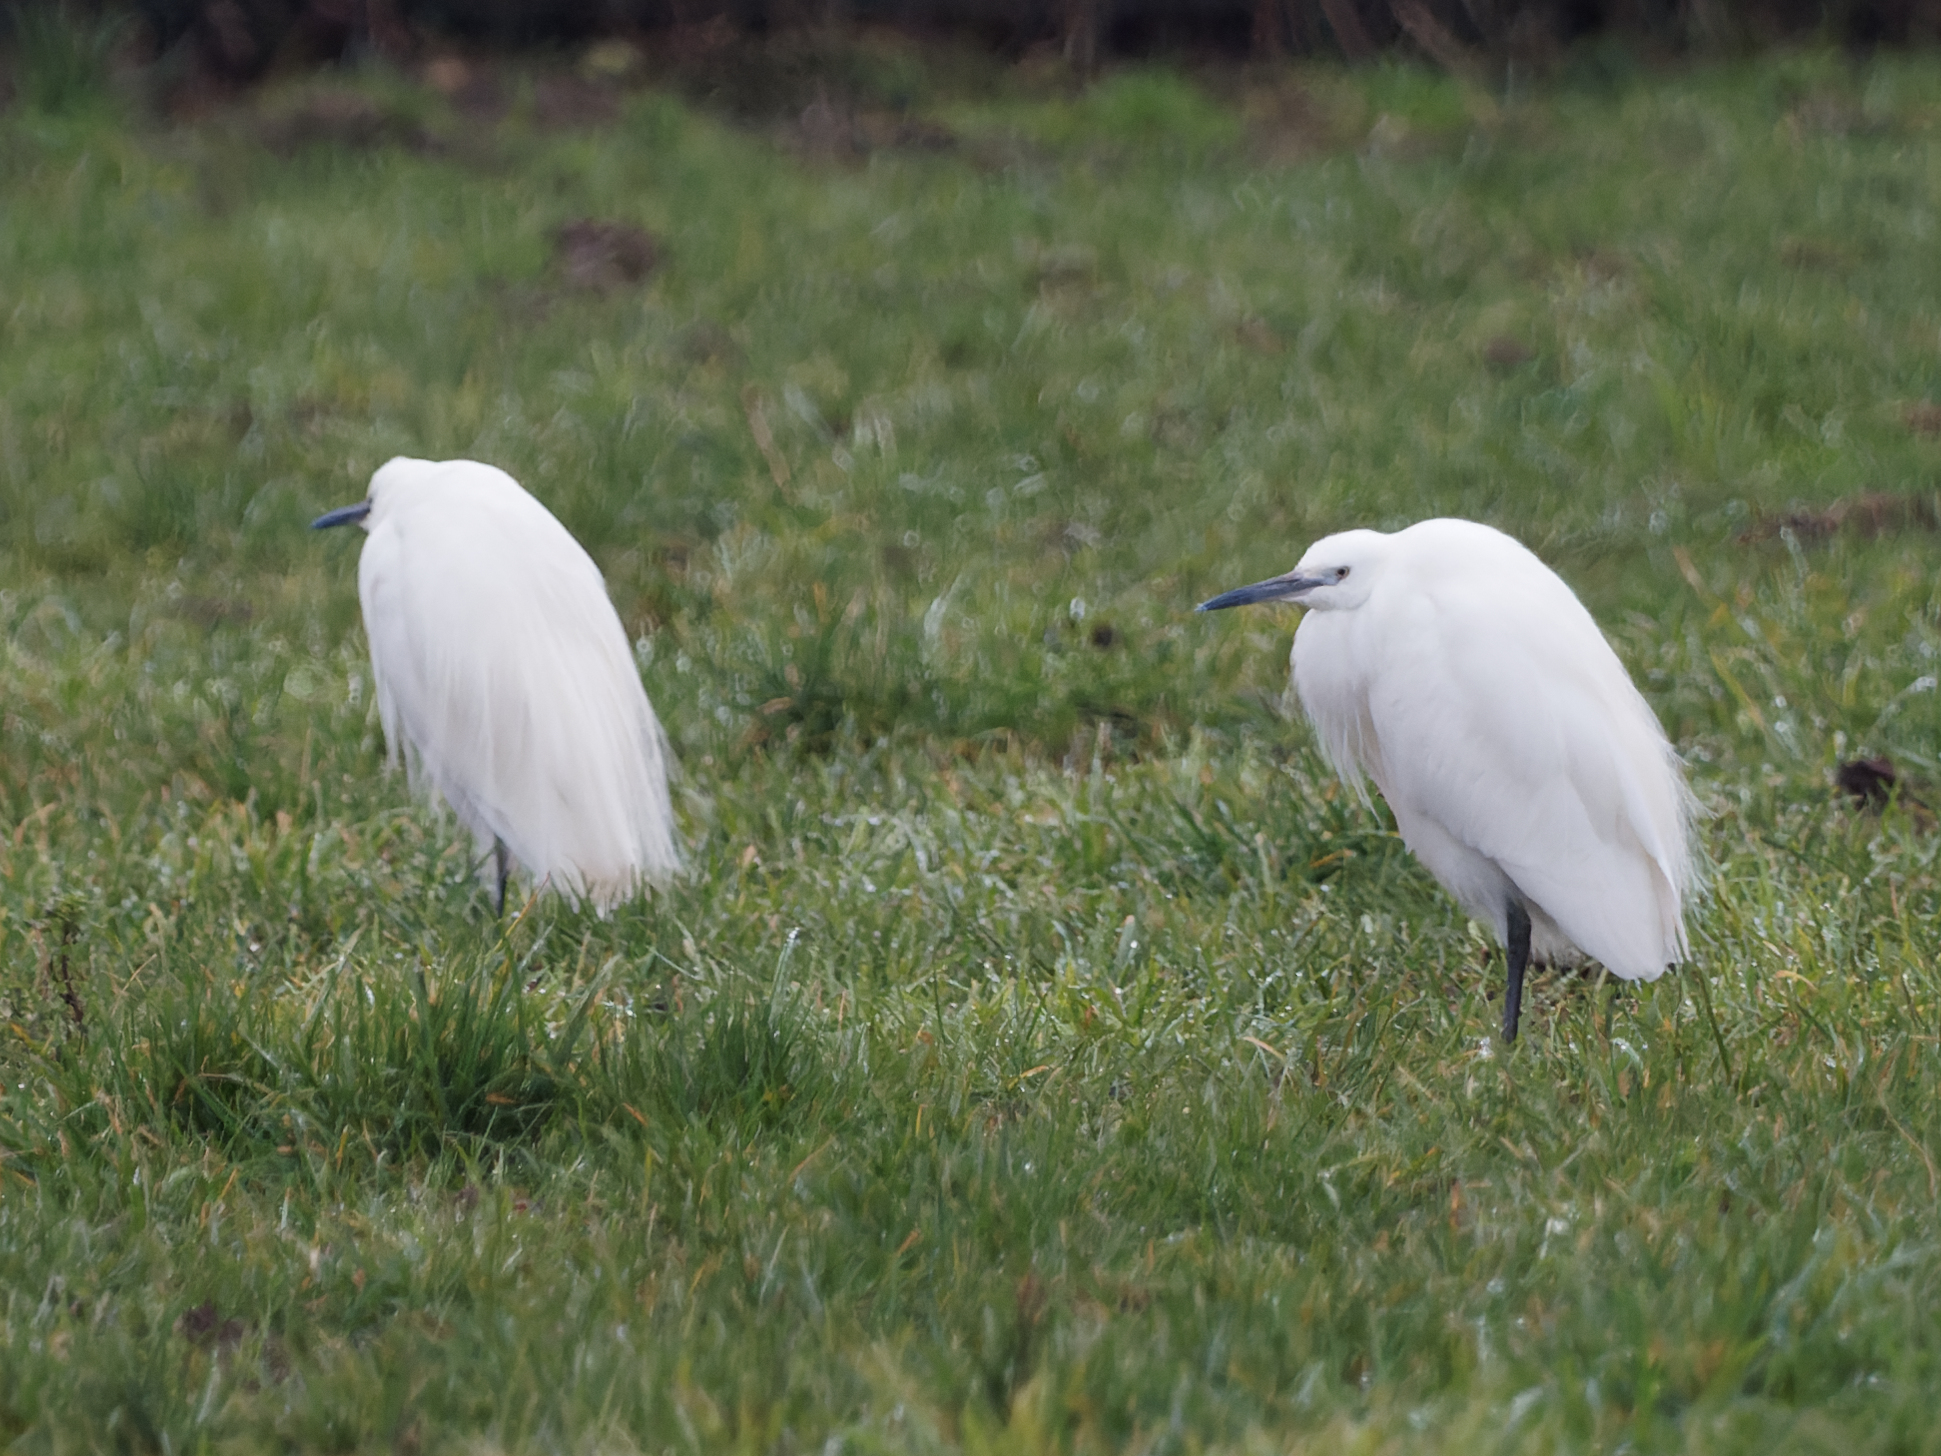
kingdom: Animalia
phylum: Chordata
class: Aves
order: Pelecaniformes
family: Ardeidae
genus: Egretta
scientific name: Egretta garzetta
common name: Little egret
